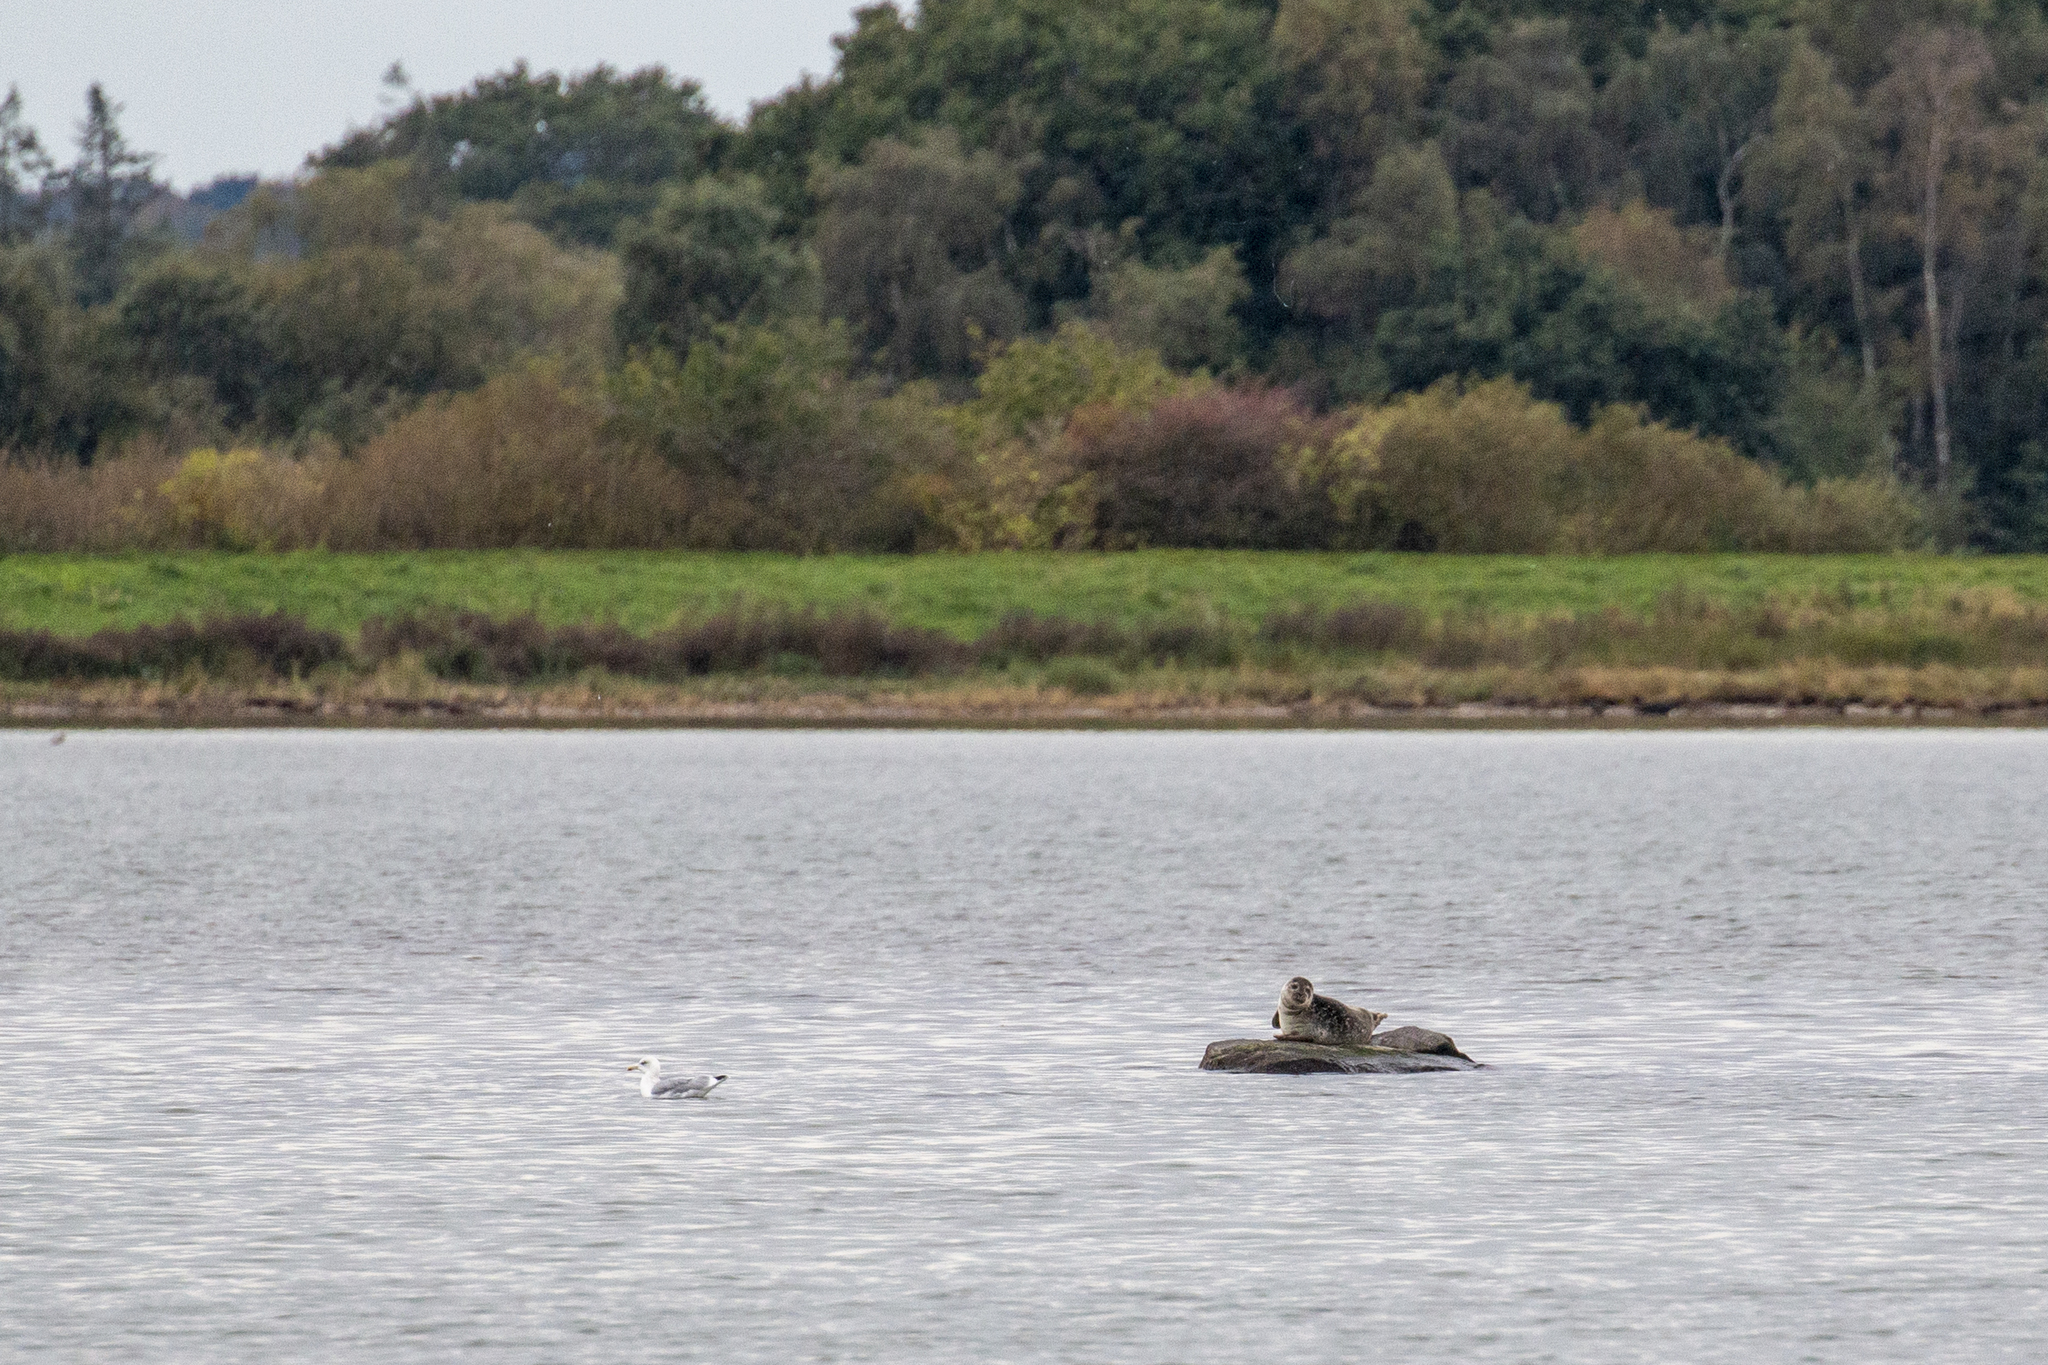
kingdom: Animalia
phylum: Chordata
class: Mammalia
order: Carnivora
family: Phocidae
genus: Phoca
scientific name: Phoca vitulina
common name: Harbor seal
